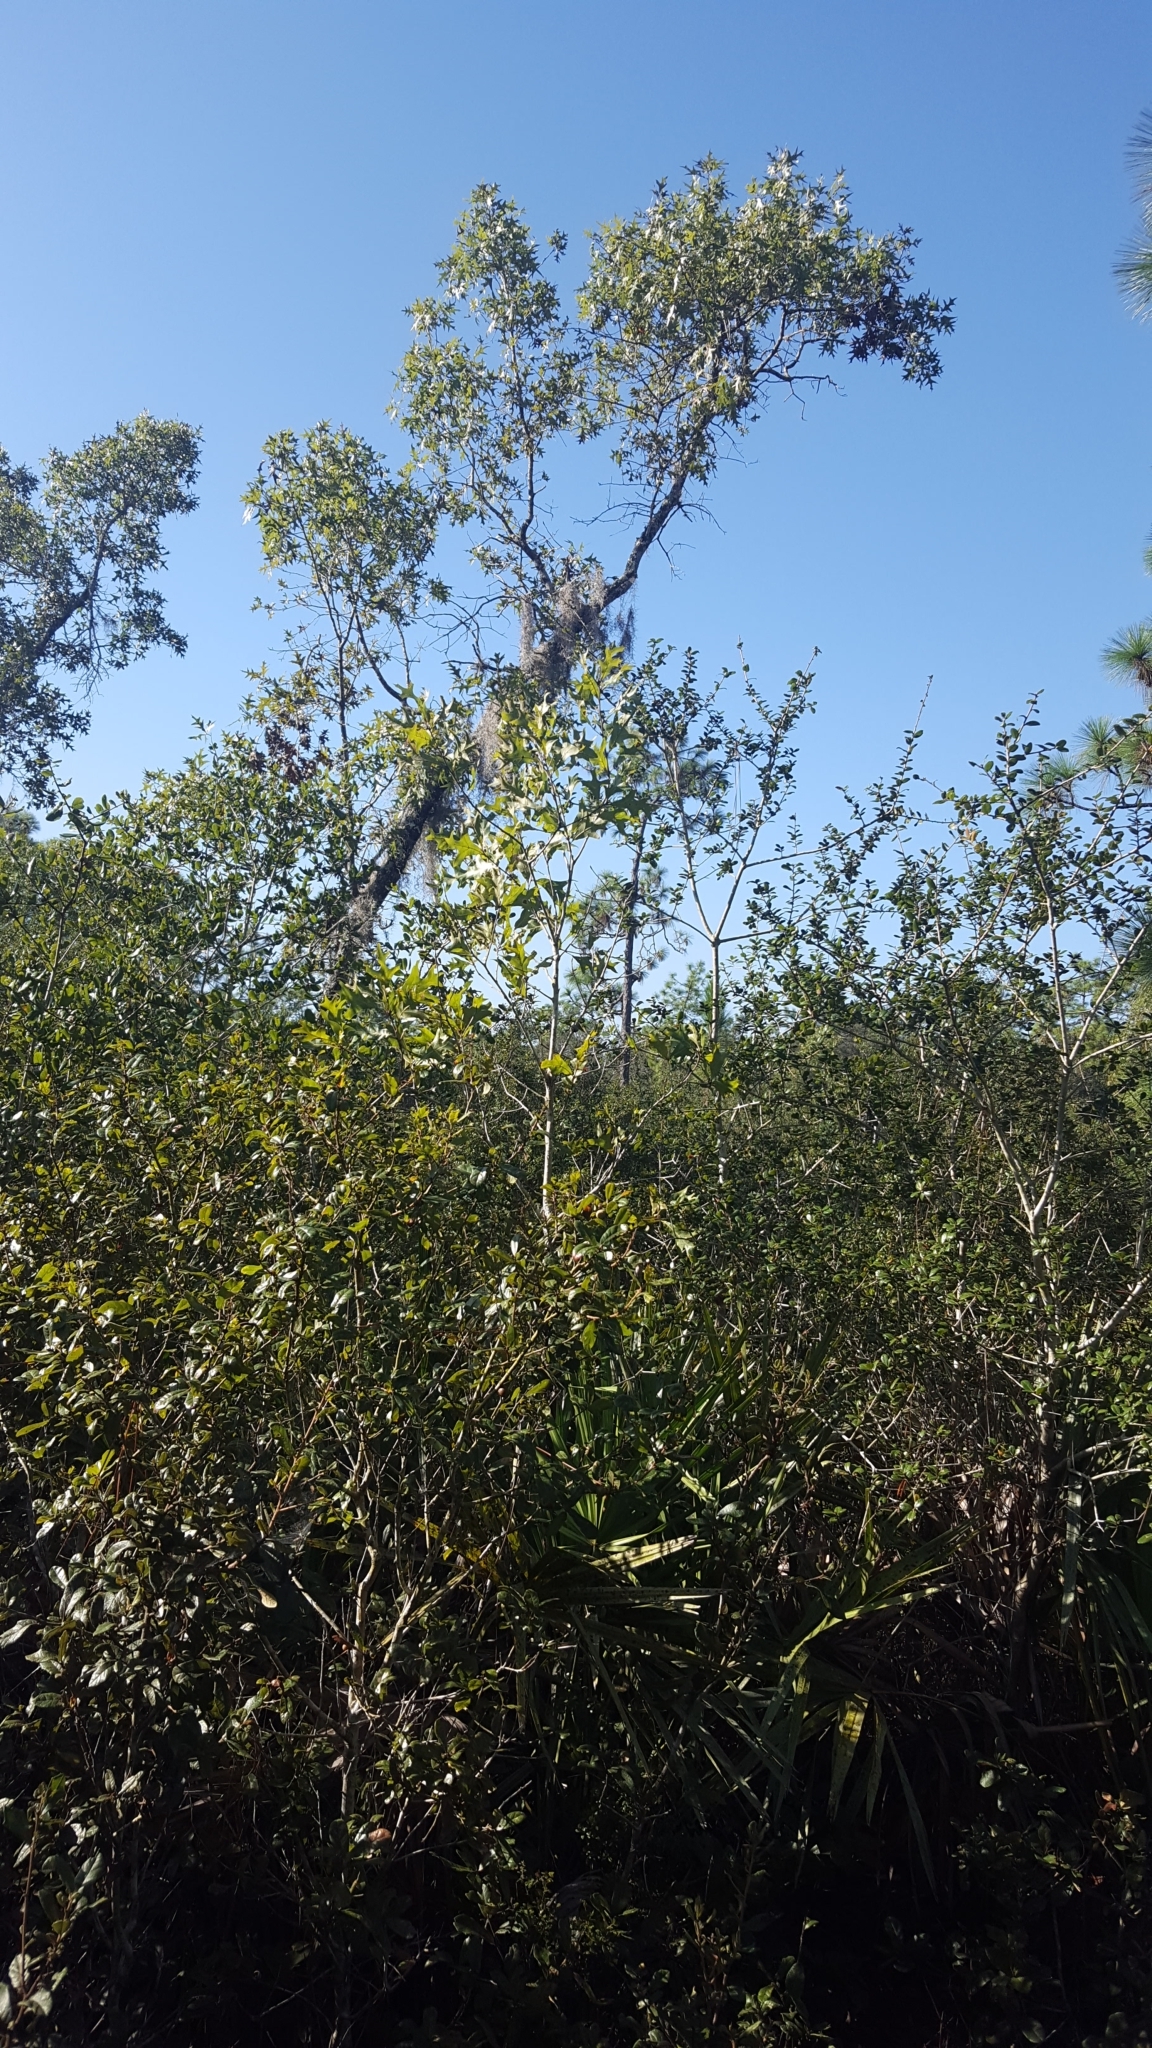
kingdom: Plantae
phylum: Tracheophyta
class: Magnoliopsida
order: Fagales
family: Fagaceae
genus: Quercus
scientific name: Quercus laevis
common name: Turkey oak
